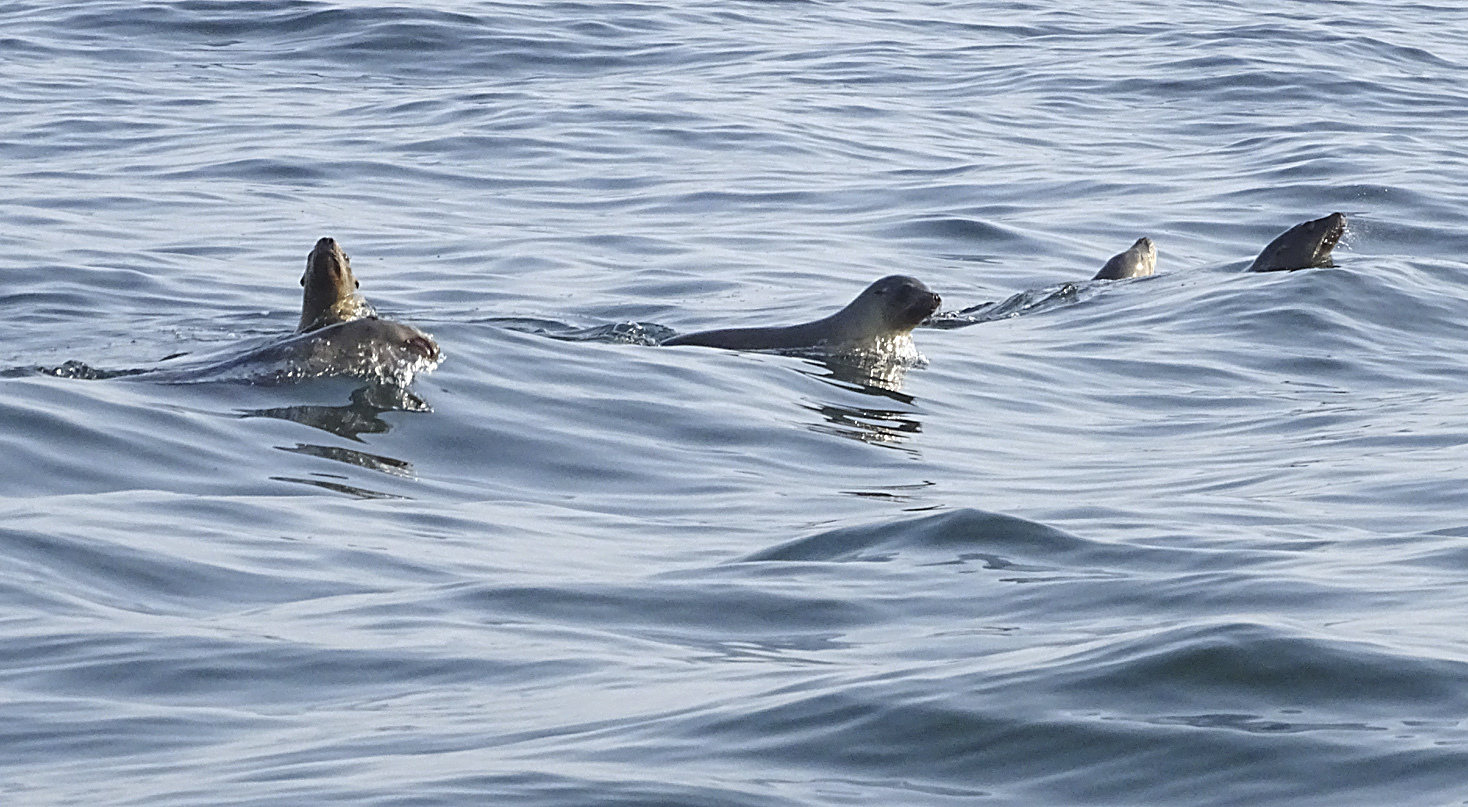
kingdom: Animalia
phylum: Chordata
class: Mammalia
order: Carnivora
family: Otariidae
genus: Zalophus
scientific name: Zalophus californianus
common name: California sea lion
